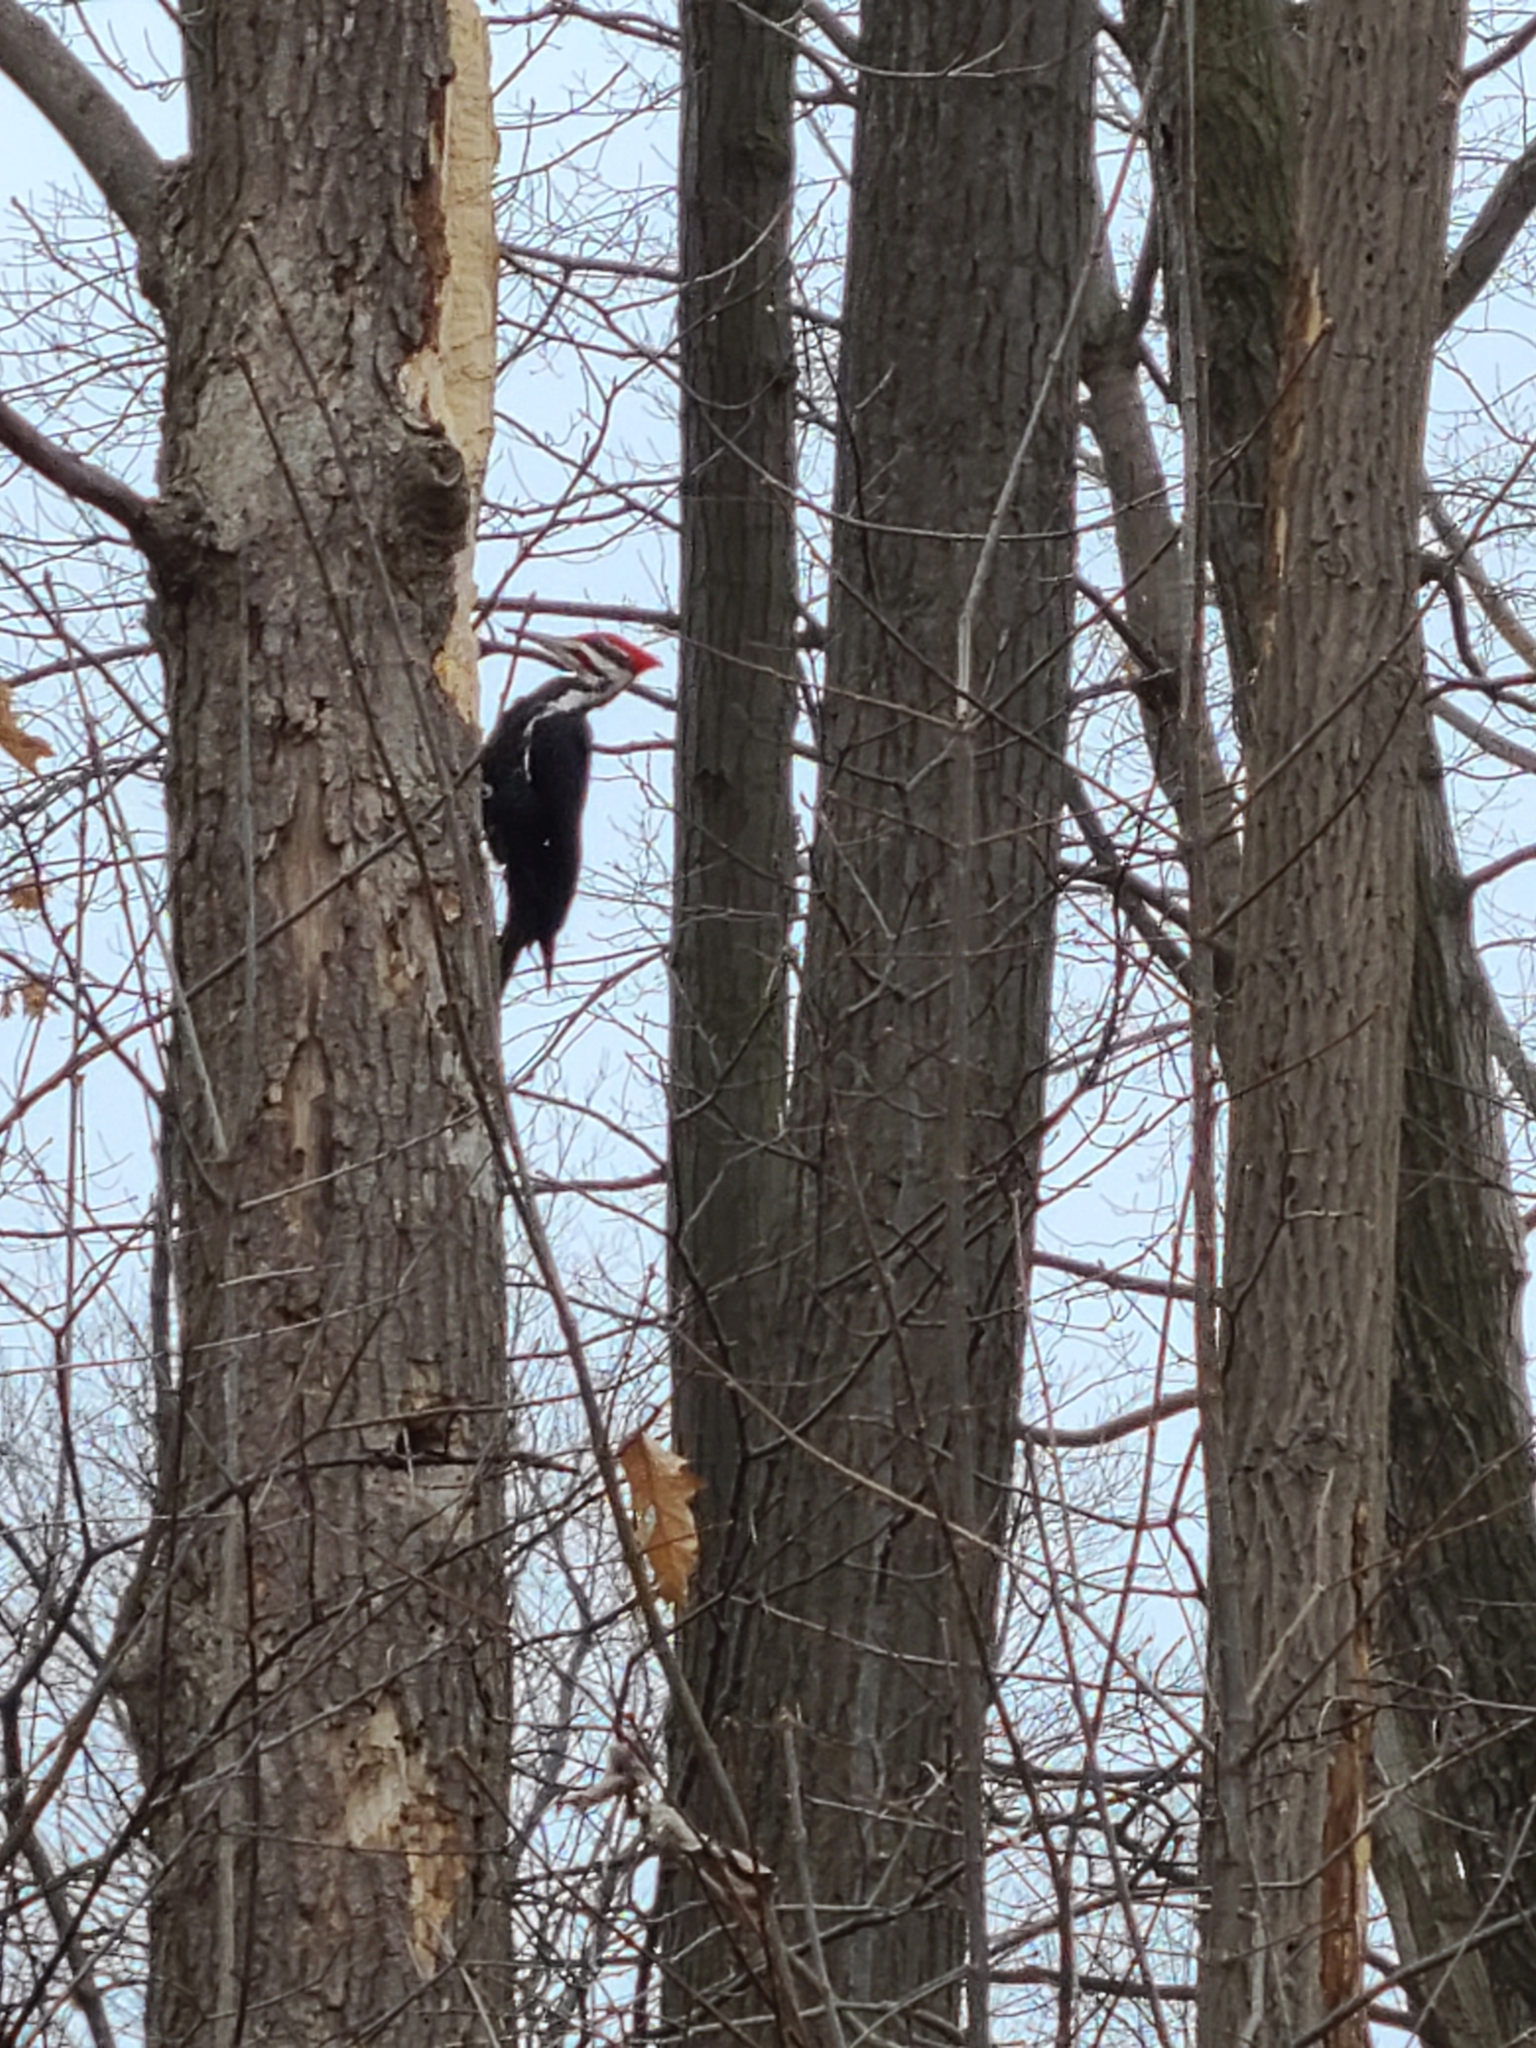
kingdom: Animalia
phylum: Chordata
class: Aves
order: Piciformes
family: Picidae
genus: Dryocopus
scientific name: Dryocopus pileatus
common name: Pileated woodpecker
